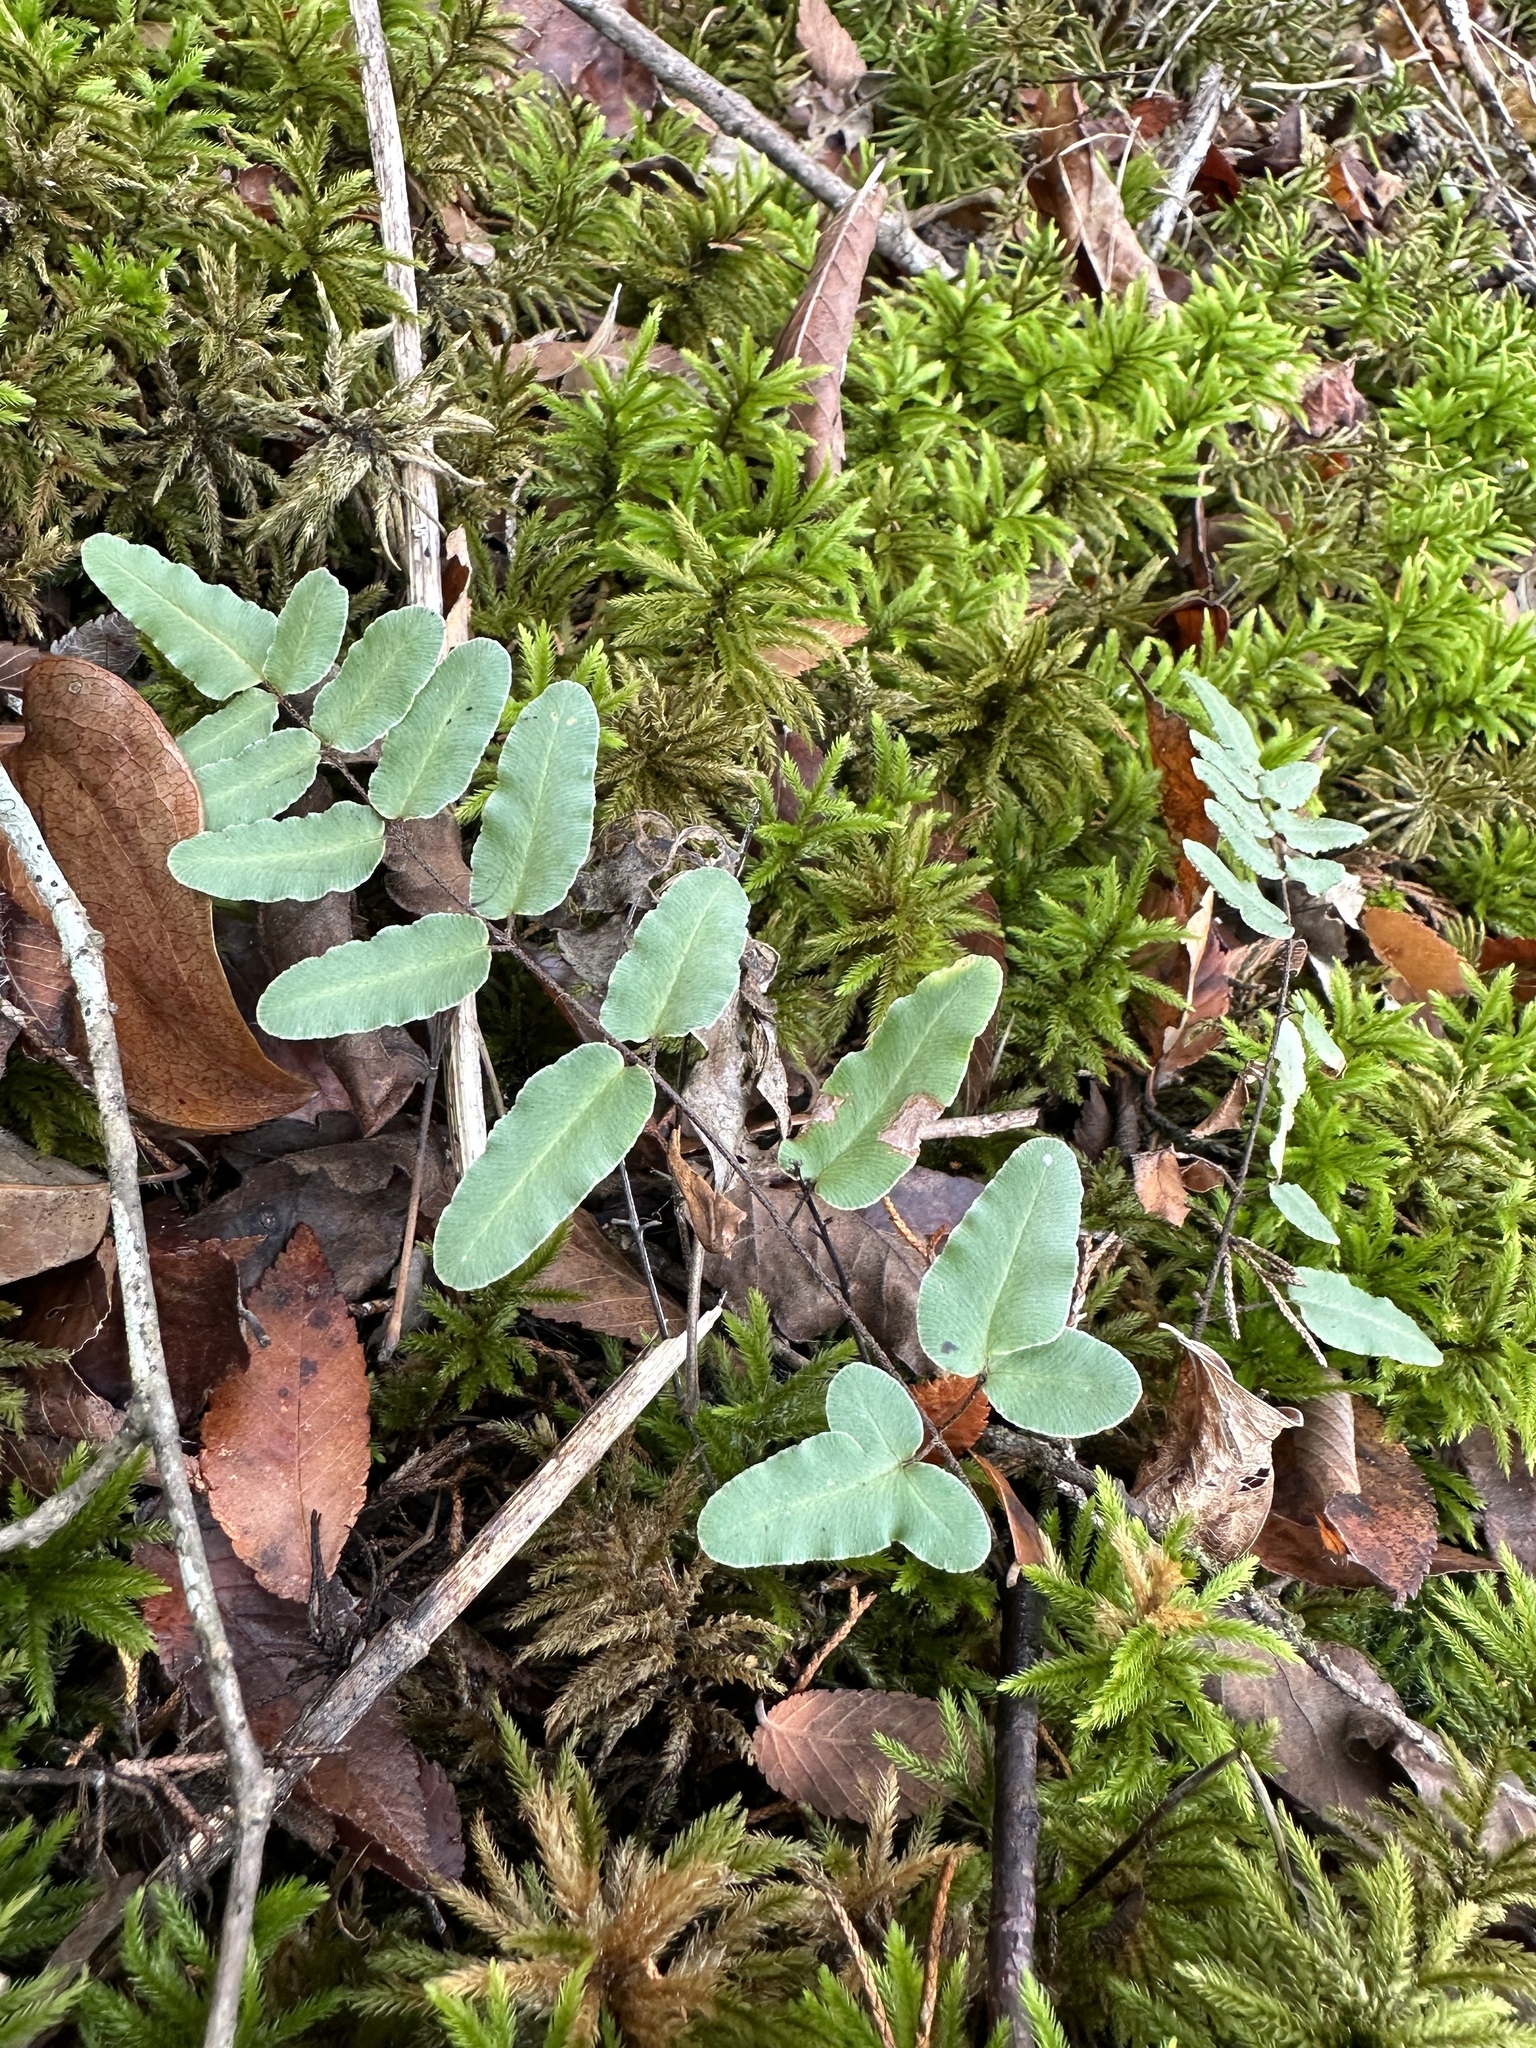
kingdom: Plantae
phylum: Tracheophyta
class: Polypodiopsida
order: Polypodiales
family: Pteridaceae
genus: Pellaea
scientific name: Pellaea atropurpurea
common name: Hairy cliffbrake
